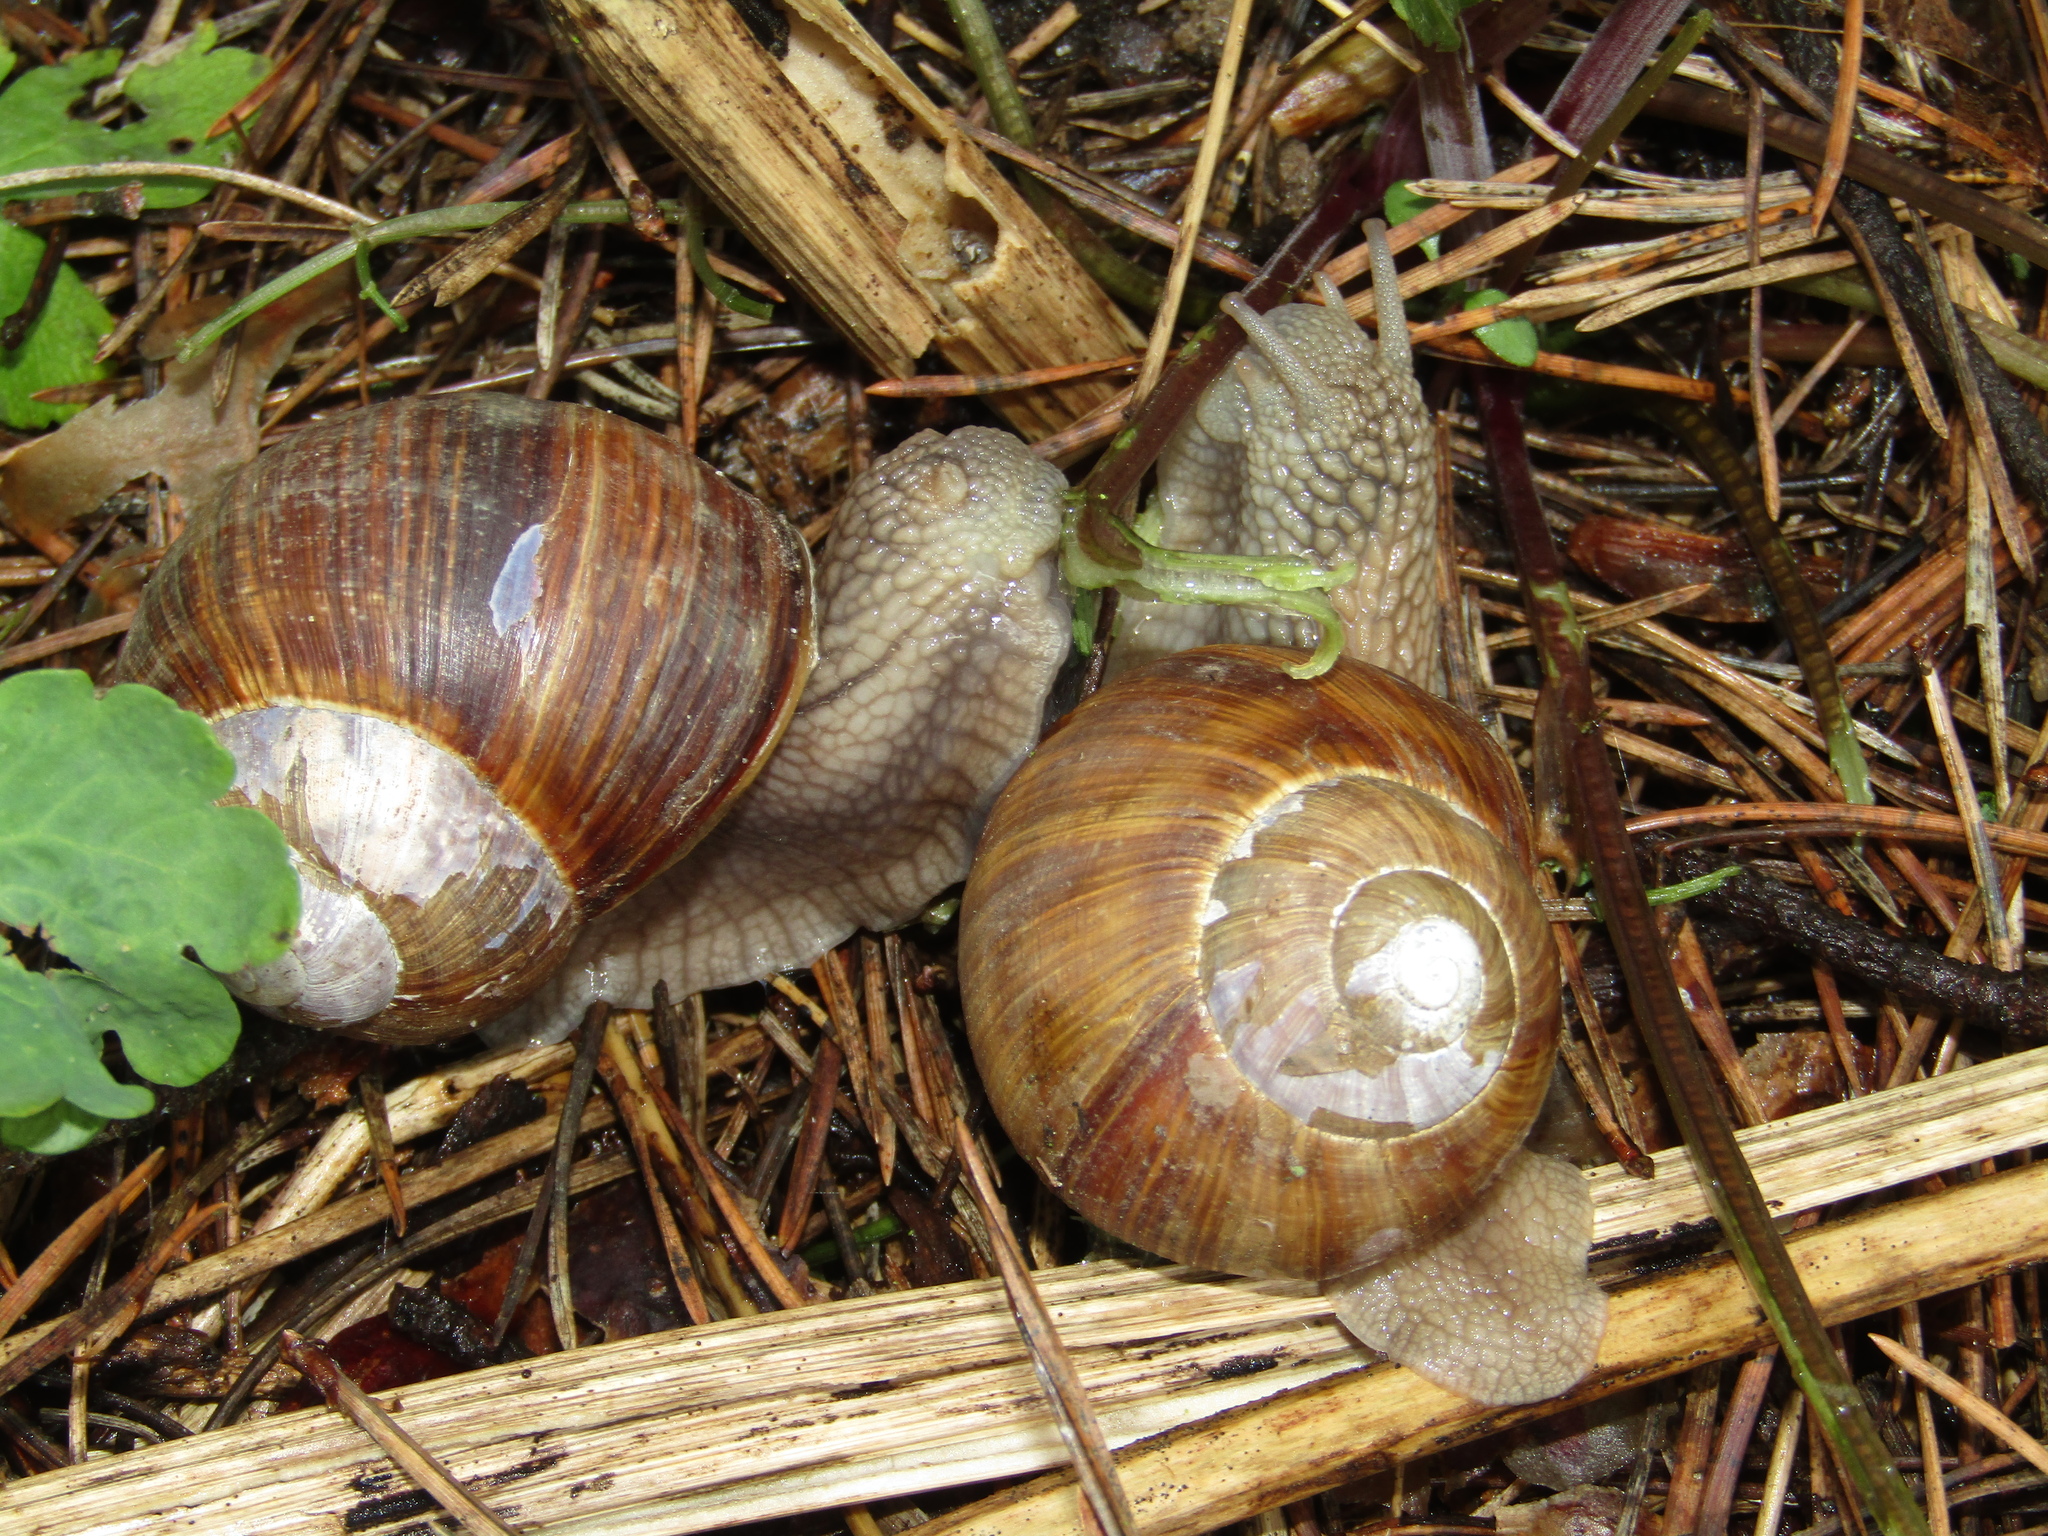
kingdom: Animalia
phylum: Mollusca
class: Gastropoda
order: Stylommatophora
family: Helicidae
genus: Helix
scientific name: Helix pomatia
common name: Roman snail
